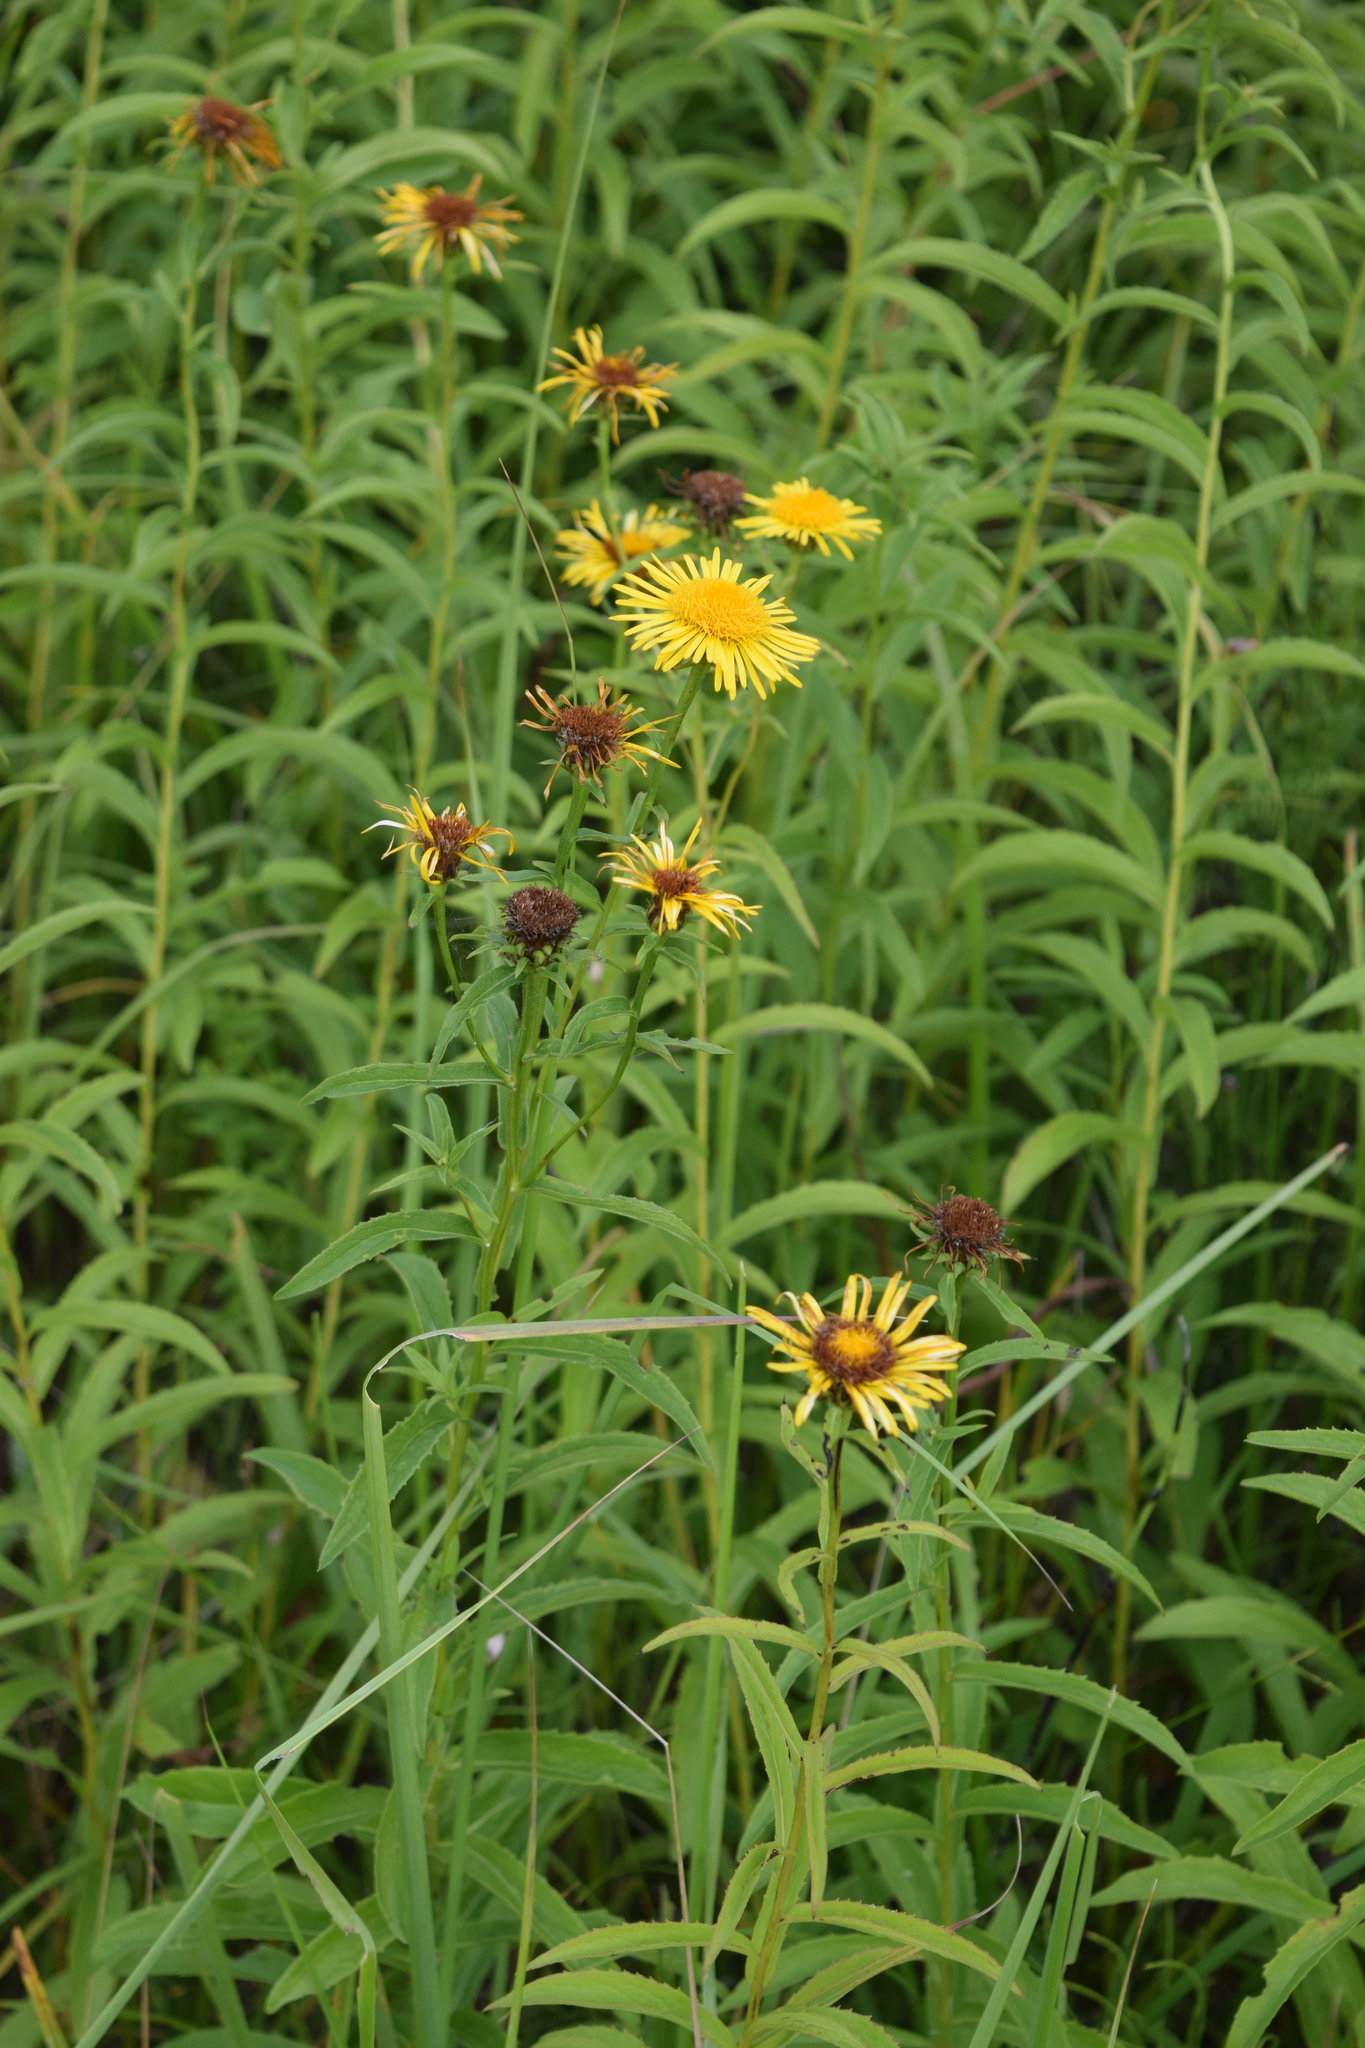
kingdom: Plantae
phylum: Tracheophyta
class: Magnoliopsida
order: Asterales
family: Asteraceae
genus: Pentanema
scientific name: Pentanema salicinum
